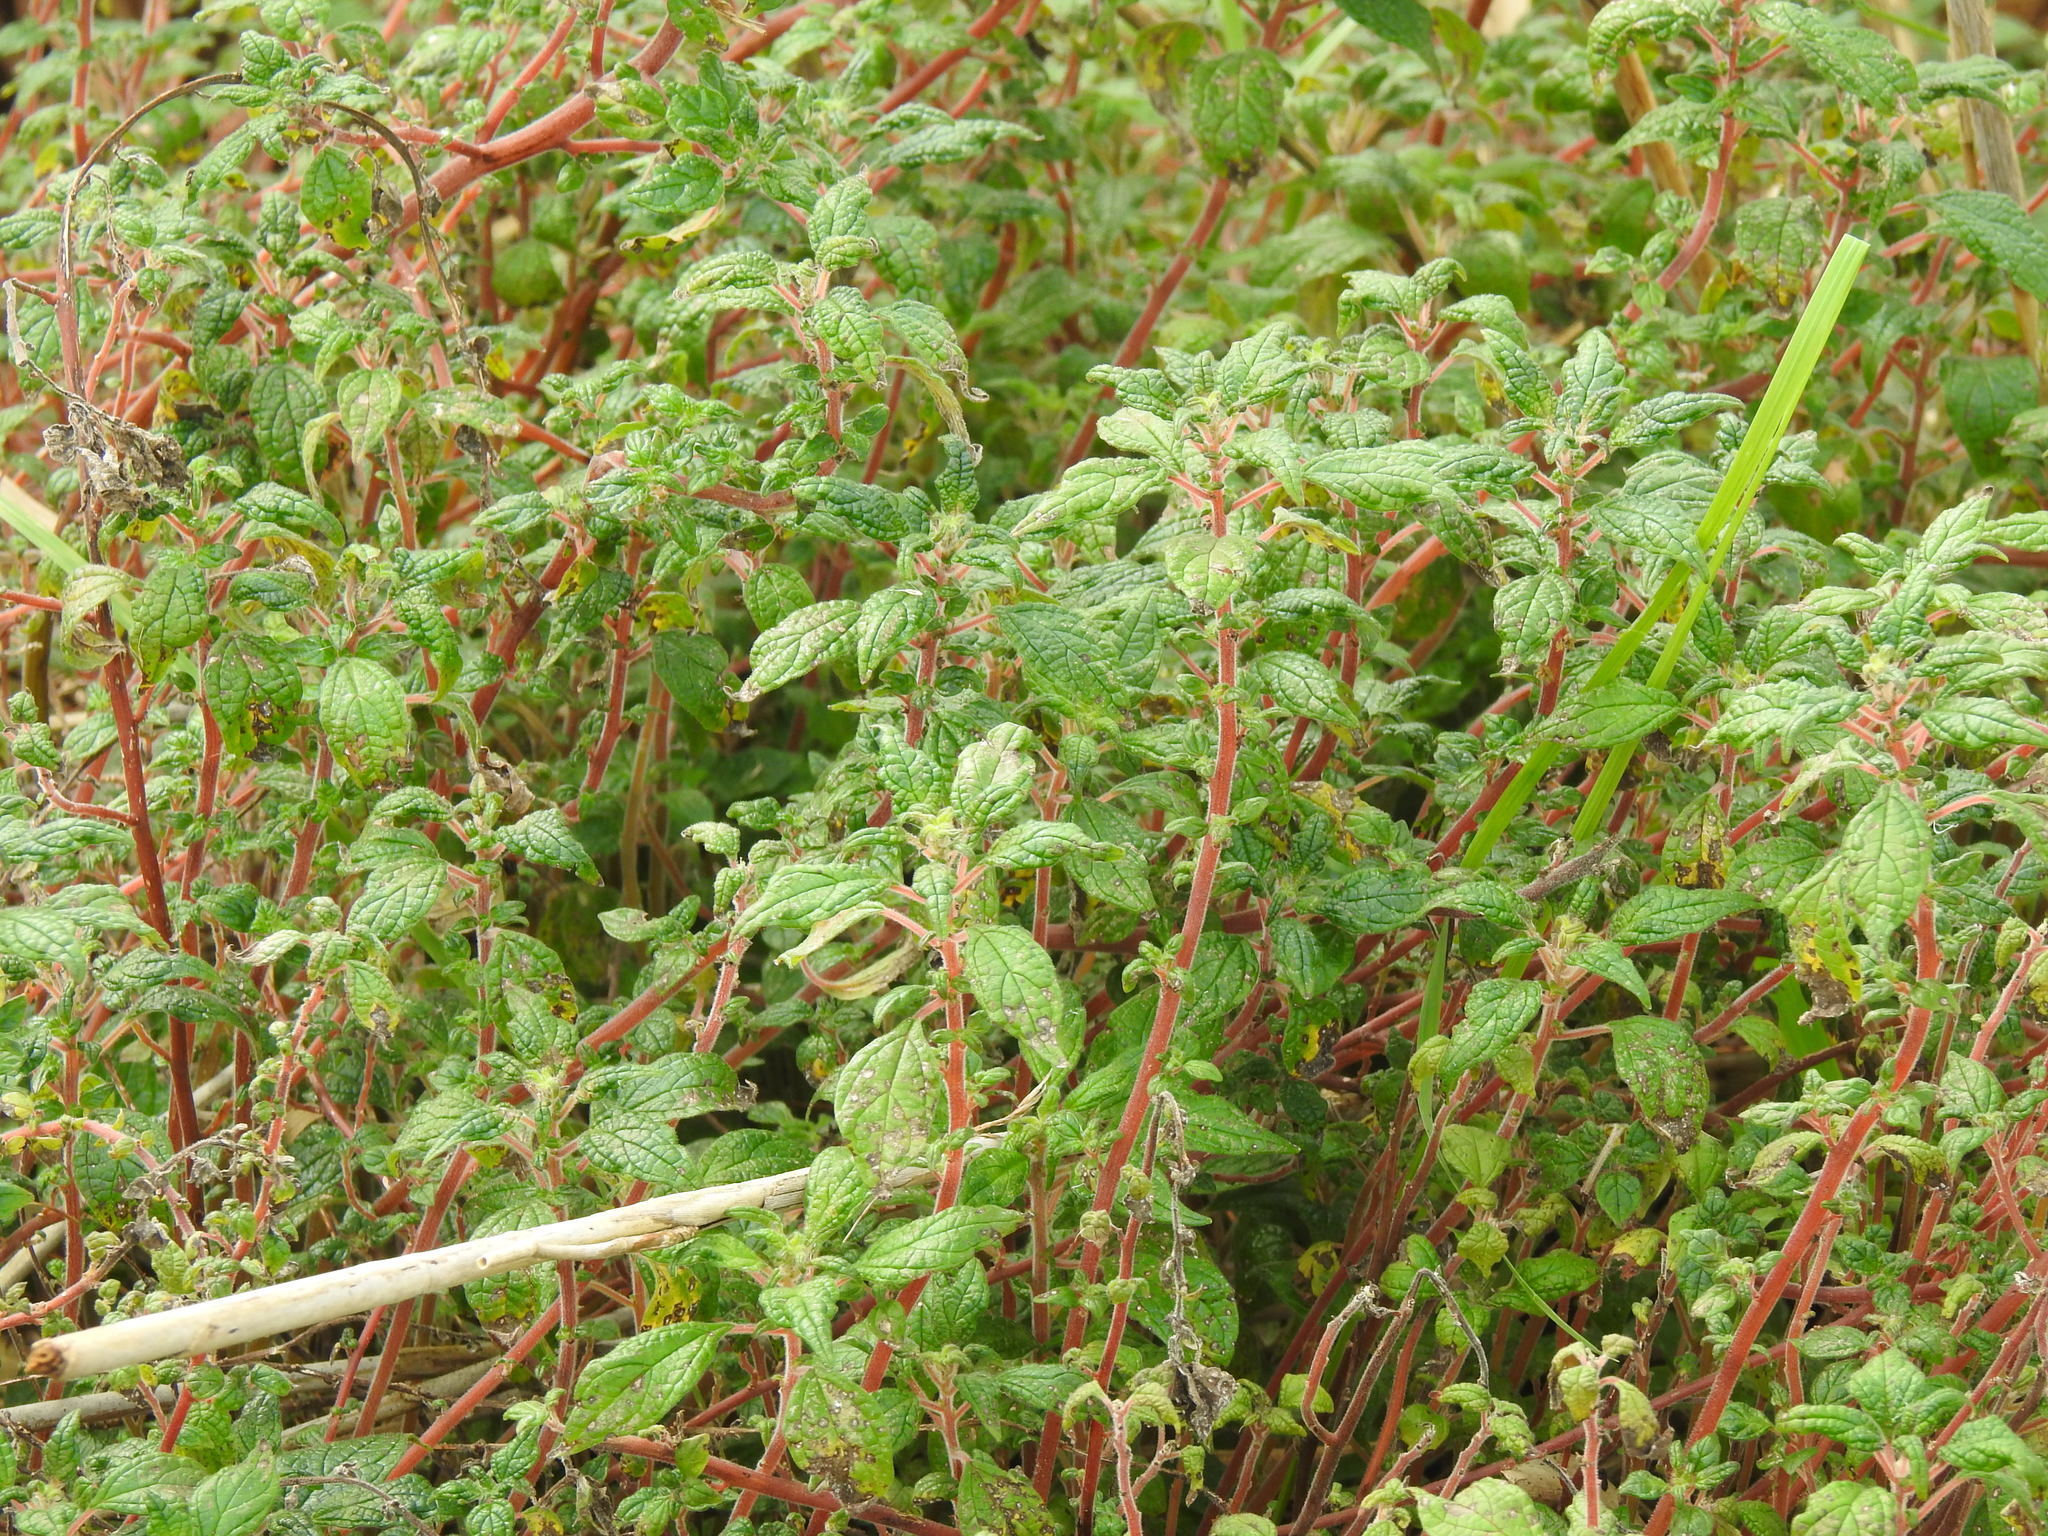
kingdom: Plantae
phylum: Tracheophyta
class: Magnoliopsida
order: Rosales
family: Urticaceae
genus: Parietaria
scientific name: Parietaria judaica
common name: Pellitory-of-the-wall
